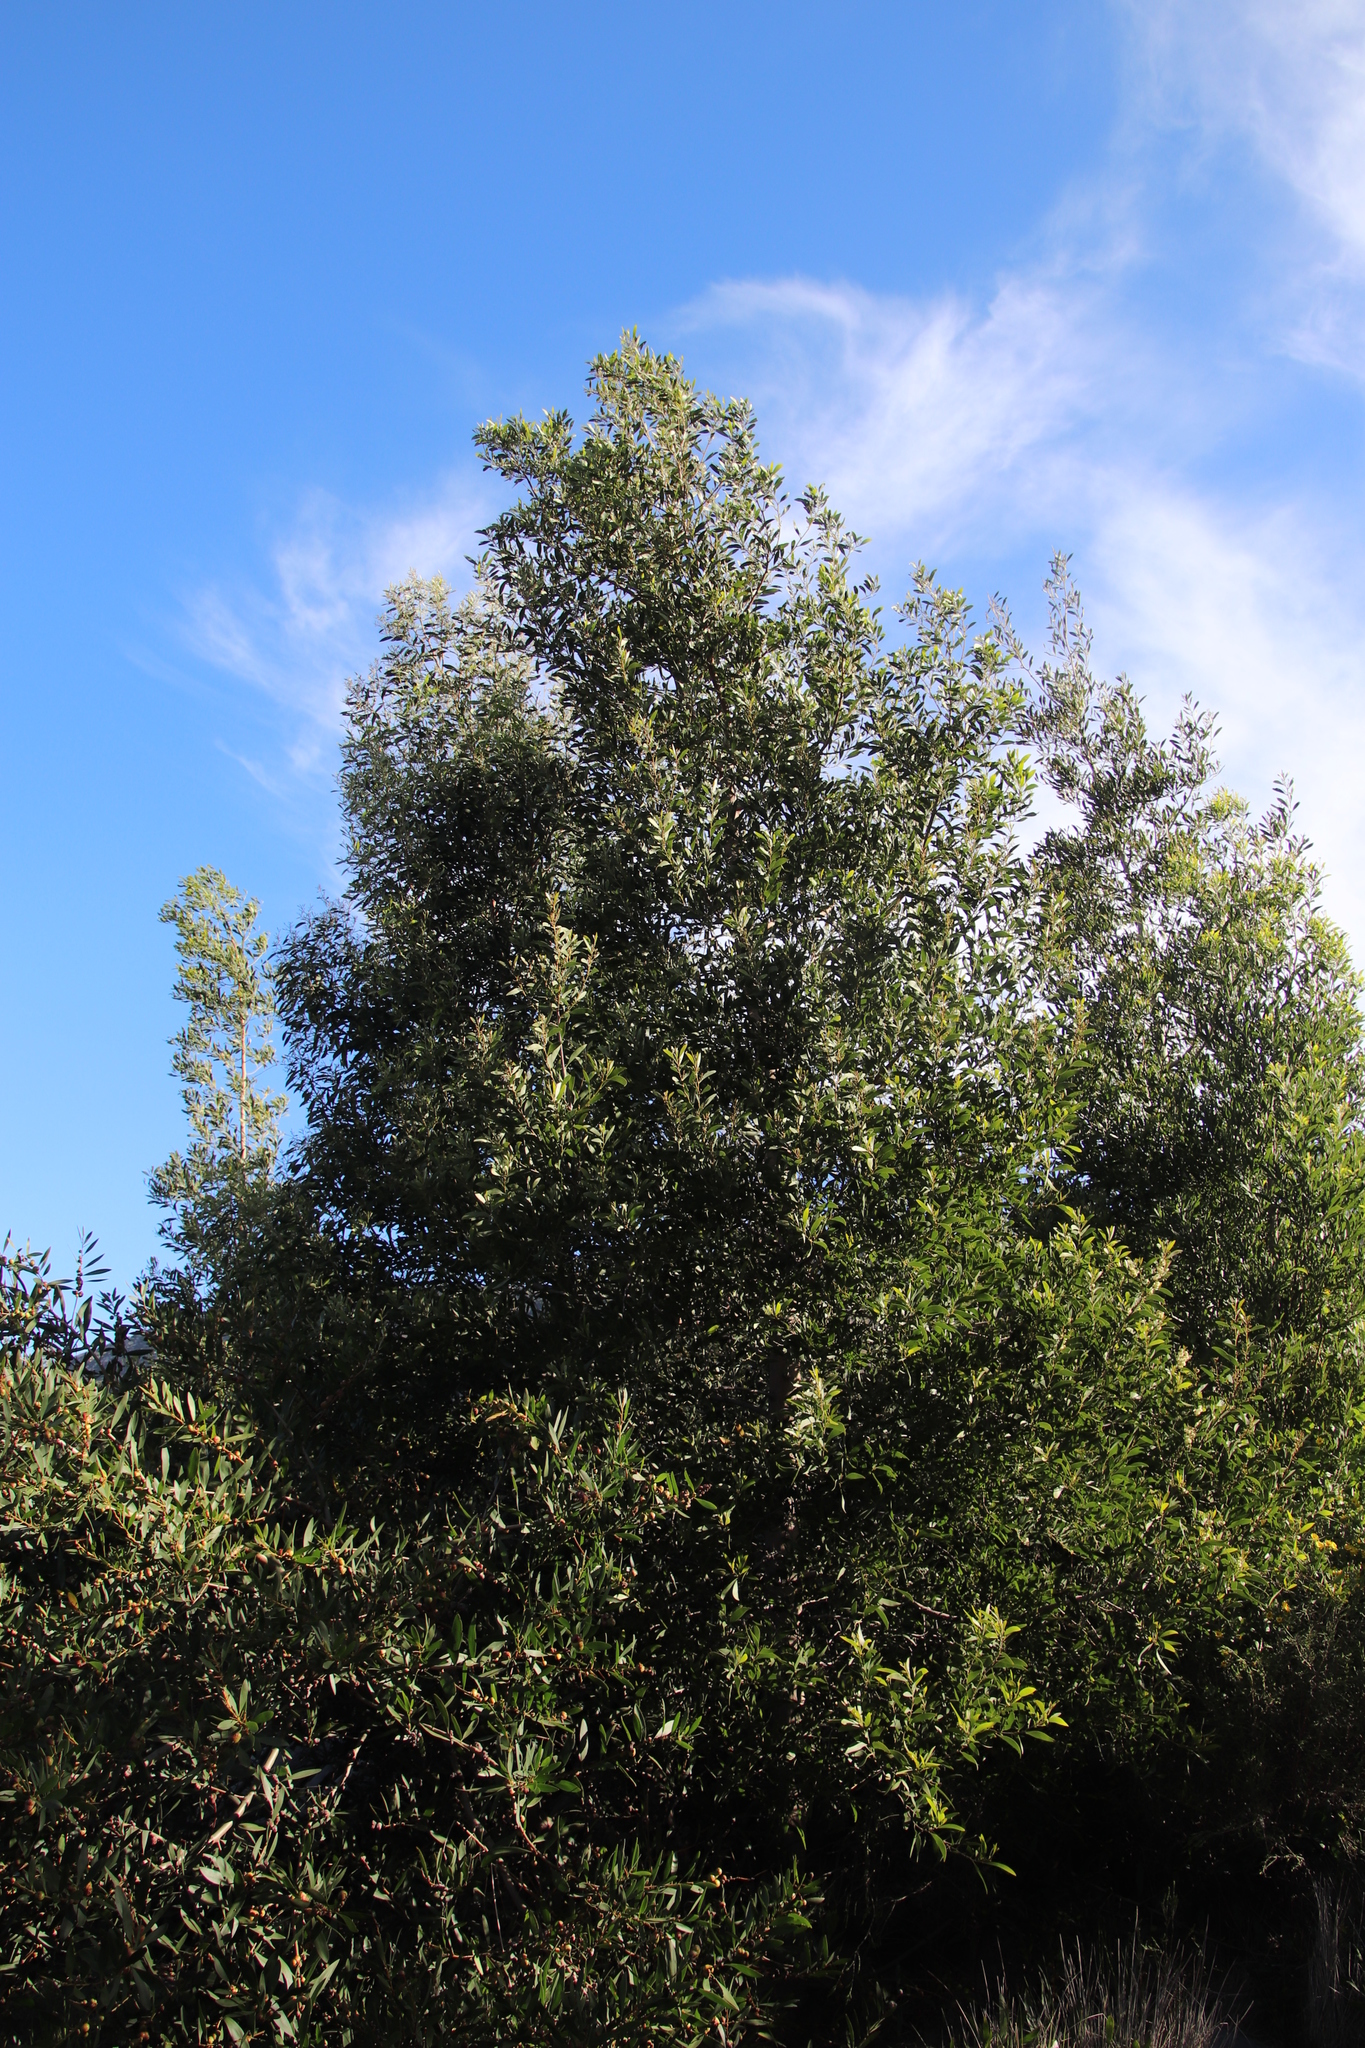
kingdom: Plantae
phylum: Tracheophyta
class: Magnoliopsida
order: Fabales
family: Fabaceae
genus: Acacia
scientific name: Acacia melanoxylon
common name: Blackwood
